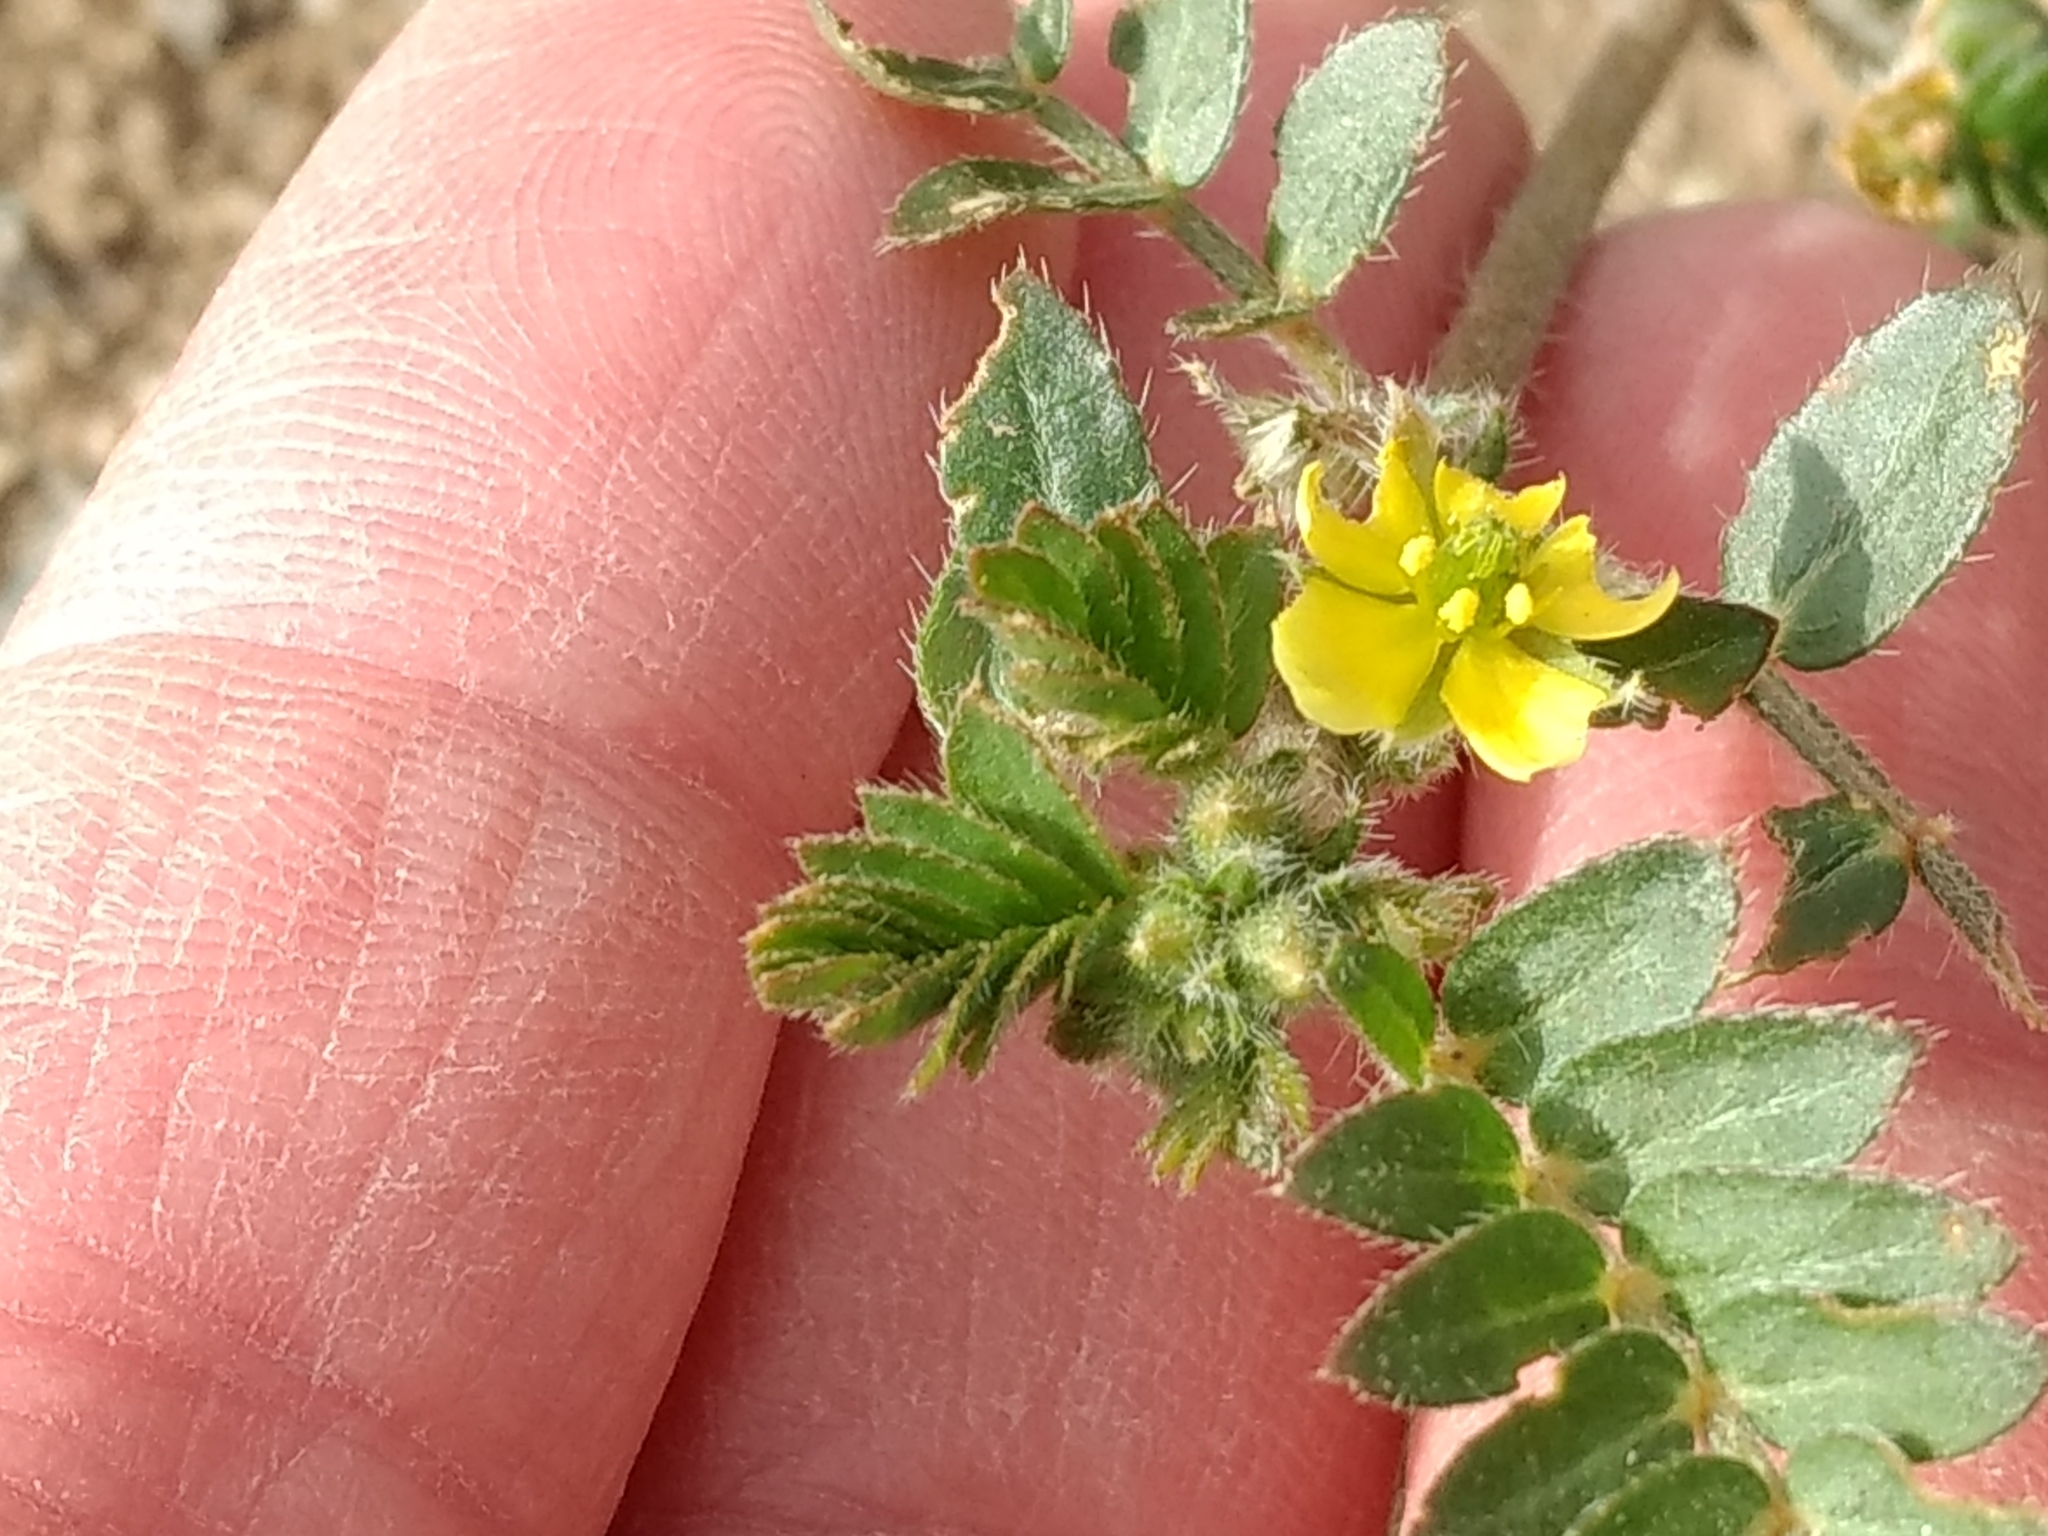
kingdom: Plantae
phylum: Tracheophyta
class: Magnoliopsida
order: Zygophyllales
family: Zygophyllaceae
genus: Tribulus
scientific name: Tribulus terrestris
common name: Puncturevine
